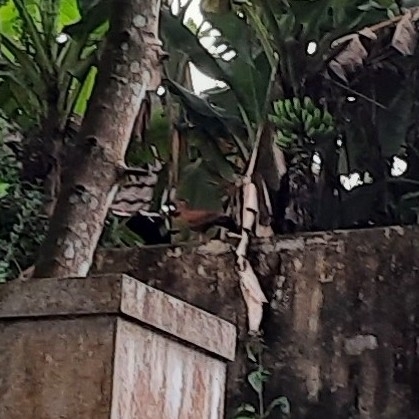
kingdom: Animalia
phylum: Chordata
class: Aves
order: Galliformes
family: Phasianidae
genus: Galloperdix
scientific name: Galloperdix spadicea
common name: Red spurfowl
